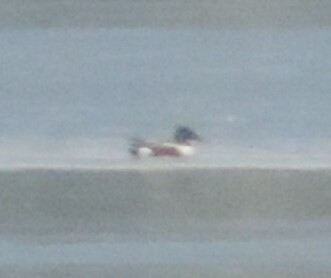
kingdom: Animalia
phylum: Chordata
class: Aves
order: Anseriformes
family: Anatidae
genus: Spatula
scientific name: Spatula clypeata
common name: Northern shoveler
